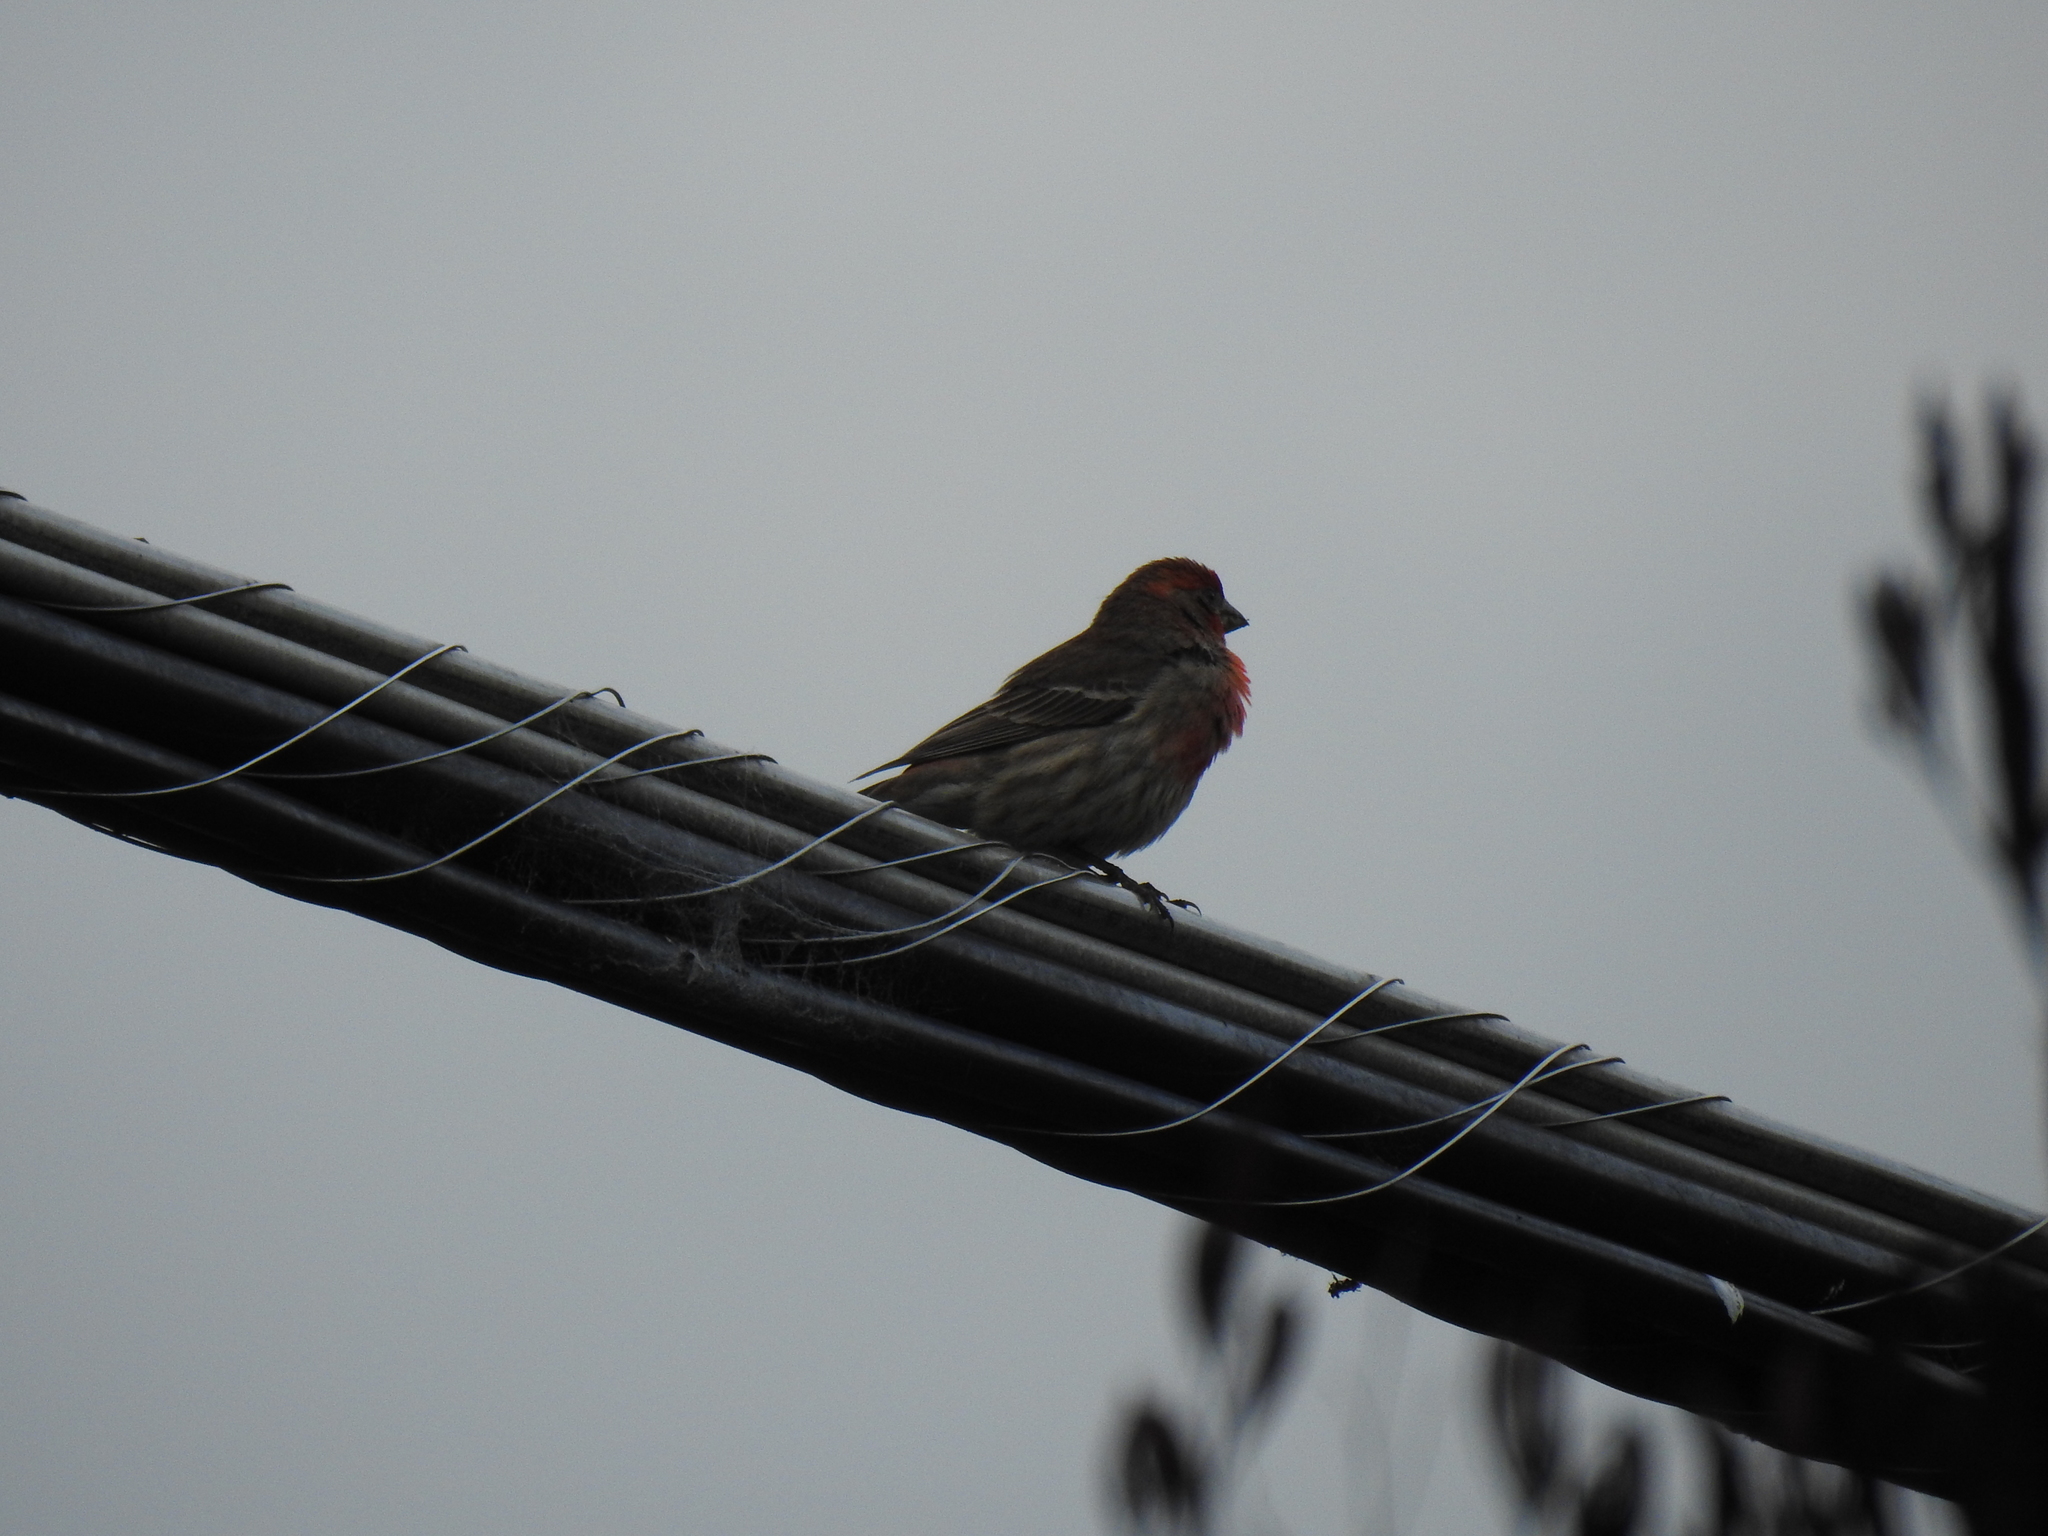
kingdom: Animalia
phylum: Chordata
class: Aves
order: Passeriformes
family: Fringillidae
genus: Haemorhous
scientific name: Haemorhous mexicanus
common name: House finch
